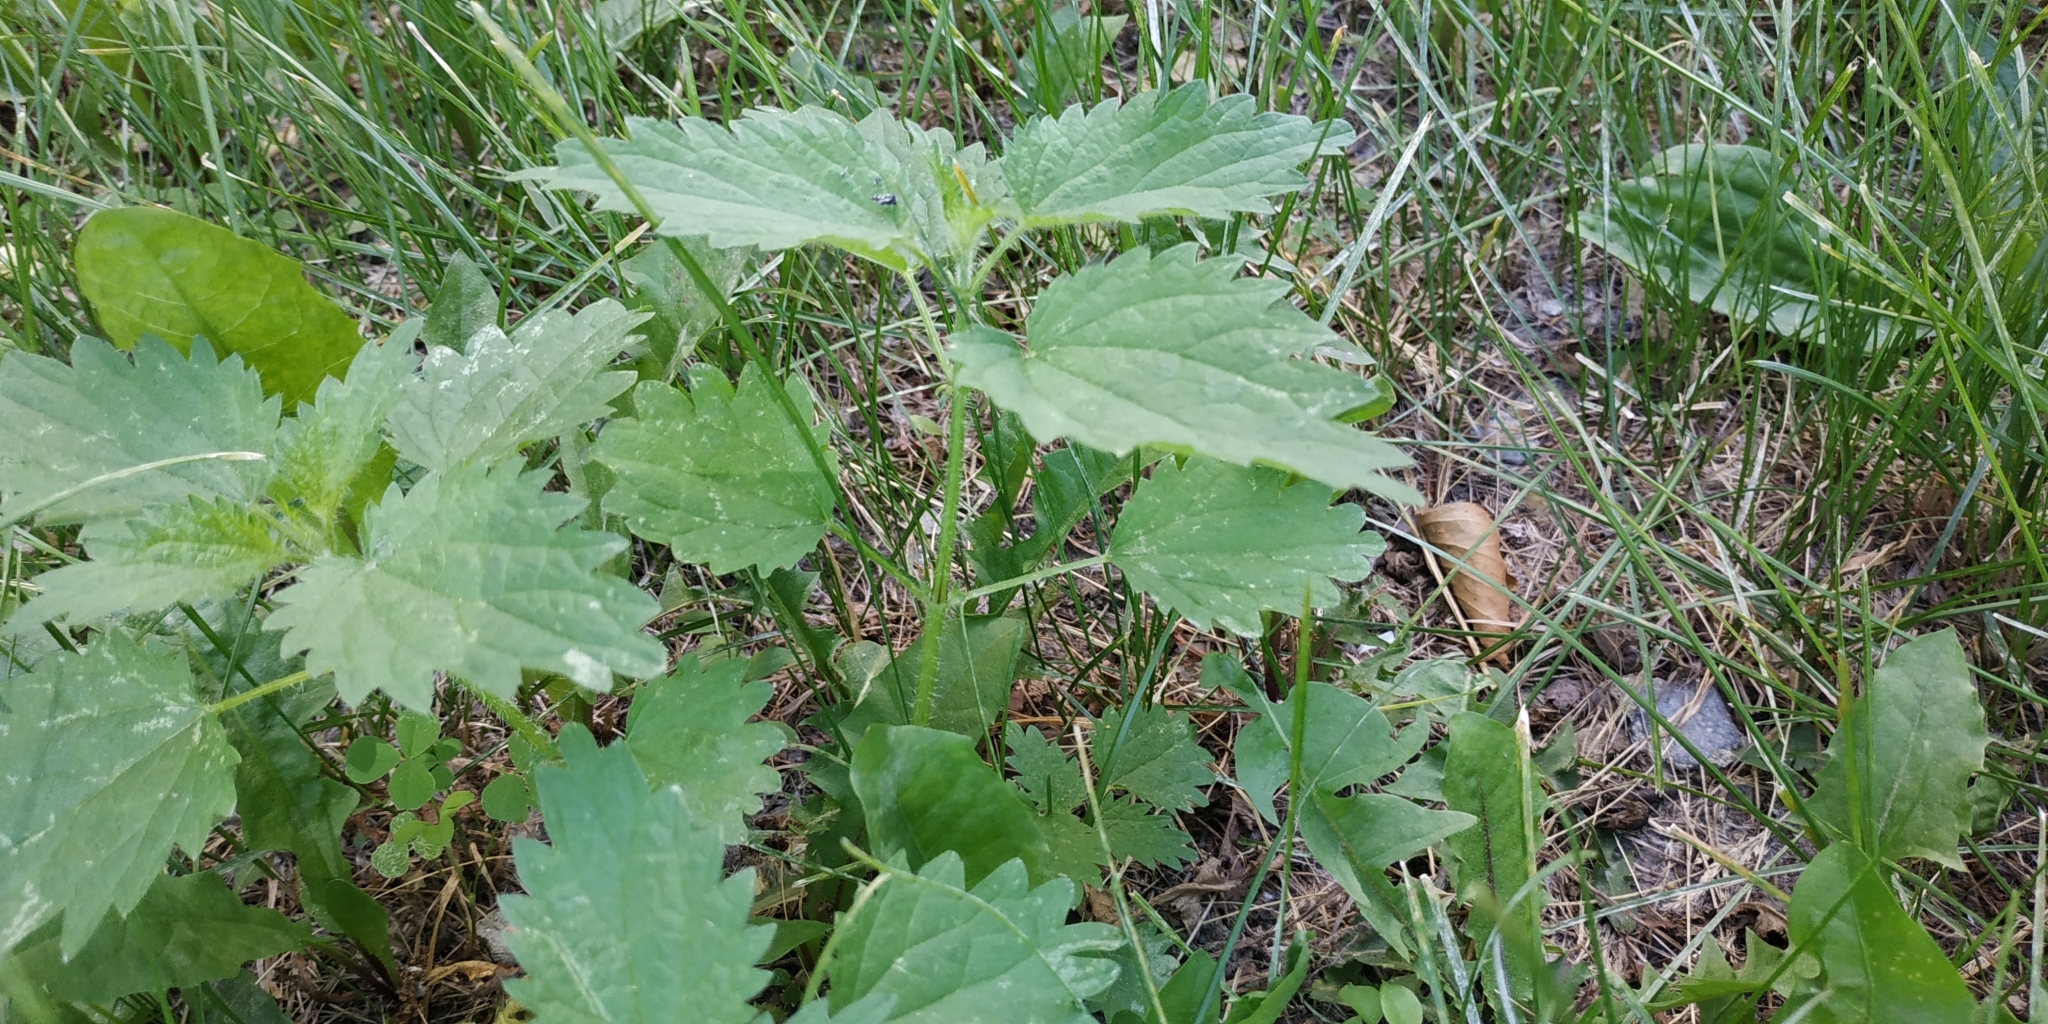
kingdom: Plantae
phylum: Tracheophyta
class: Magnoliopsida
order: Rosales
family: Urticaceae
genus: Urtica
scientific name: Urtica dioica
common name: Common nettle
